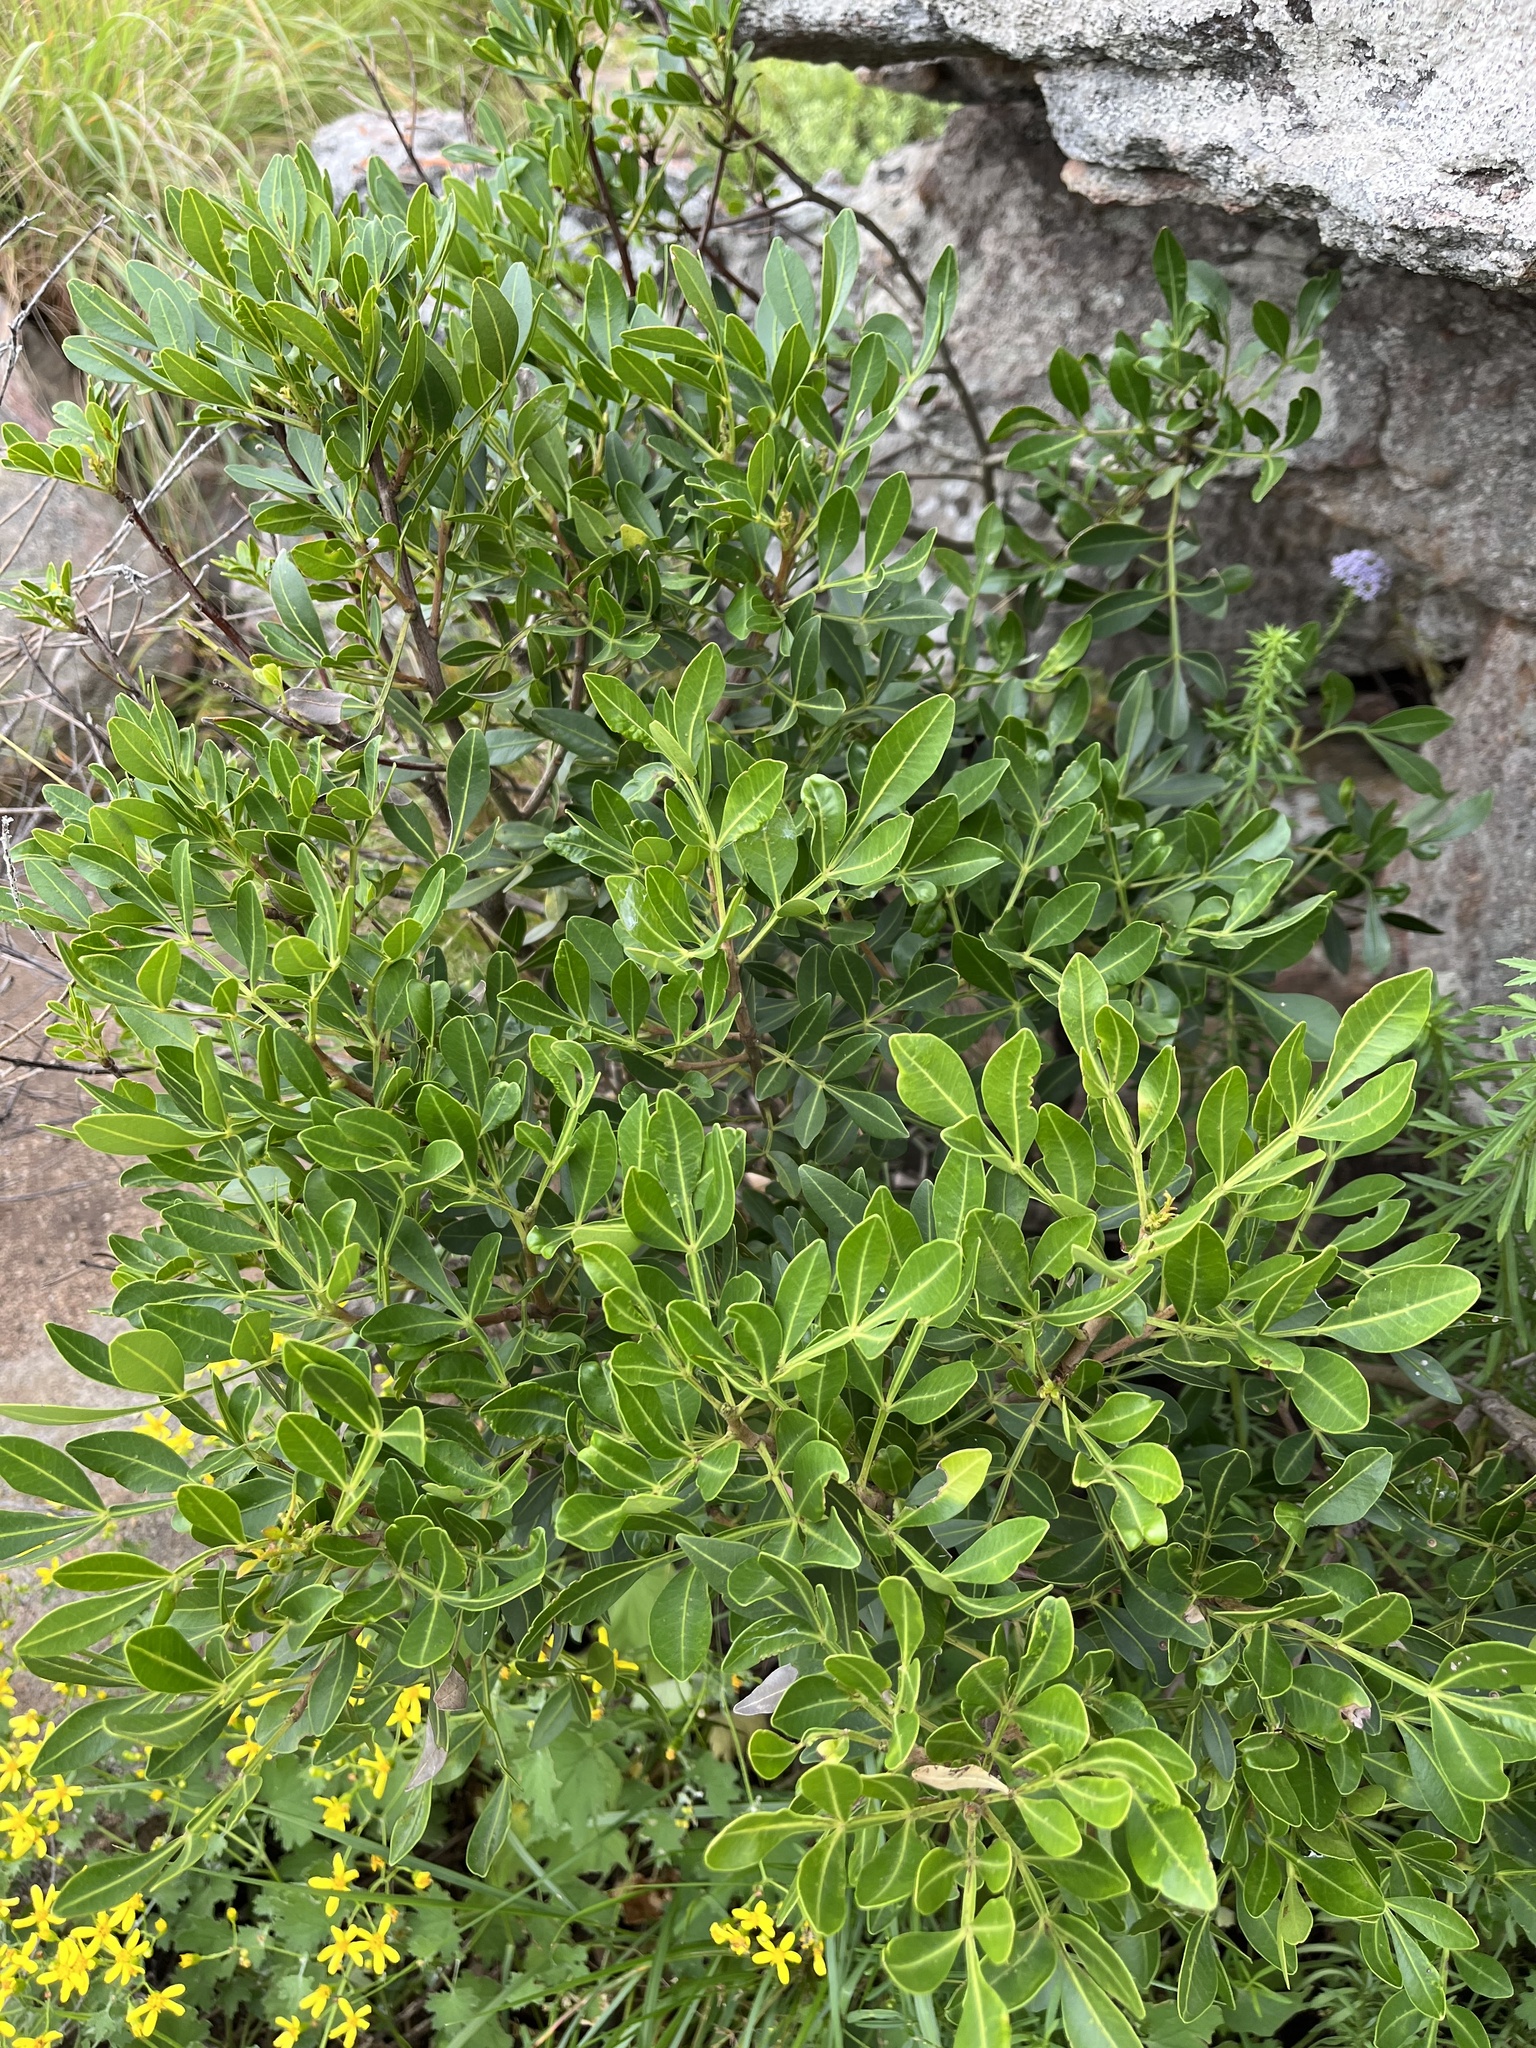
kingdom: Plantae
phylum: Tracheophyta
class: Magnoliopsida
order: Lamiales
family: Oleaceae
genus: Schrebera
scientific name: Schrebera alata
